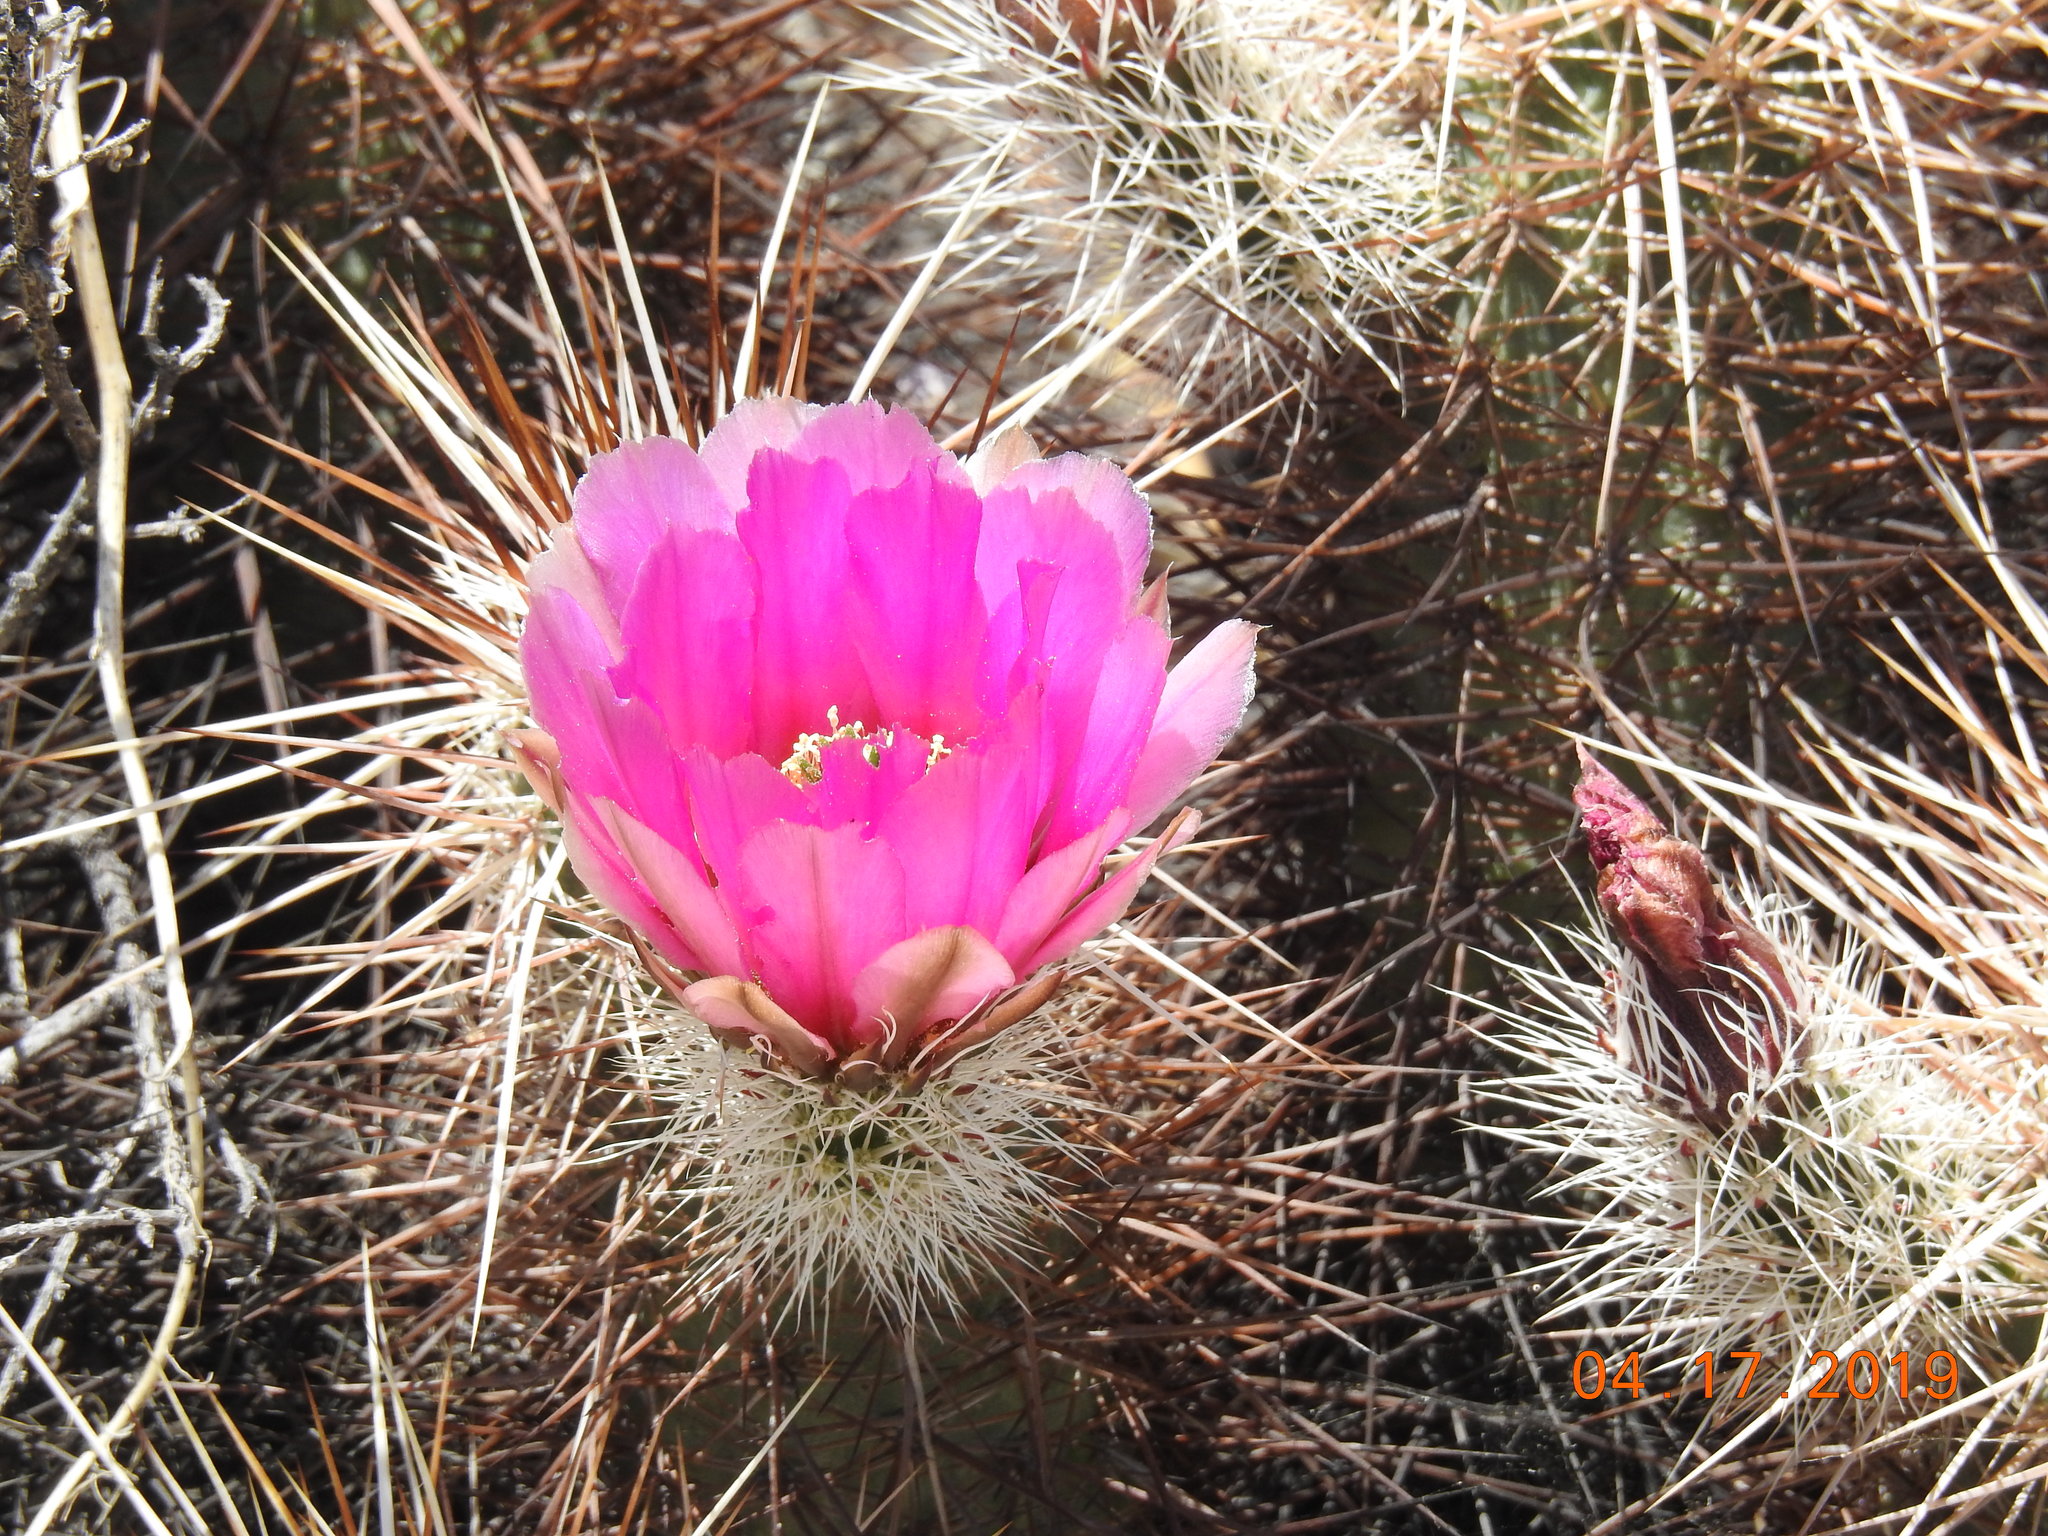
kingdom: Plantae
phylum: Tracheophyta
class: Magnoliopsida
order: Caryophyllales
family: Cactaceae
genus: Echinocereus
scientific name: Echinocereus engelmannii
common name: Engelmann's hedgehog cactus
